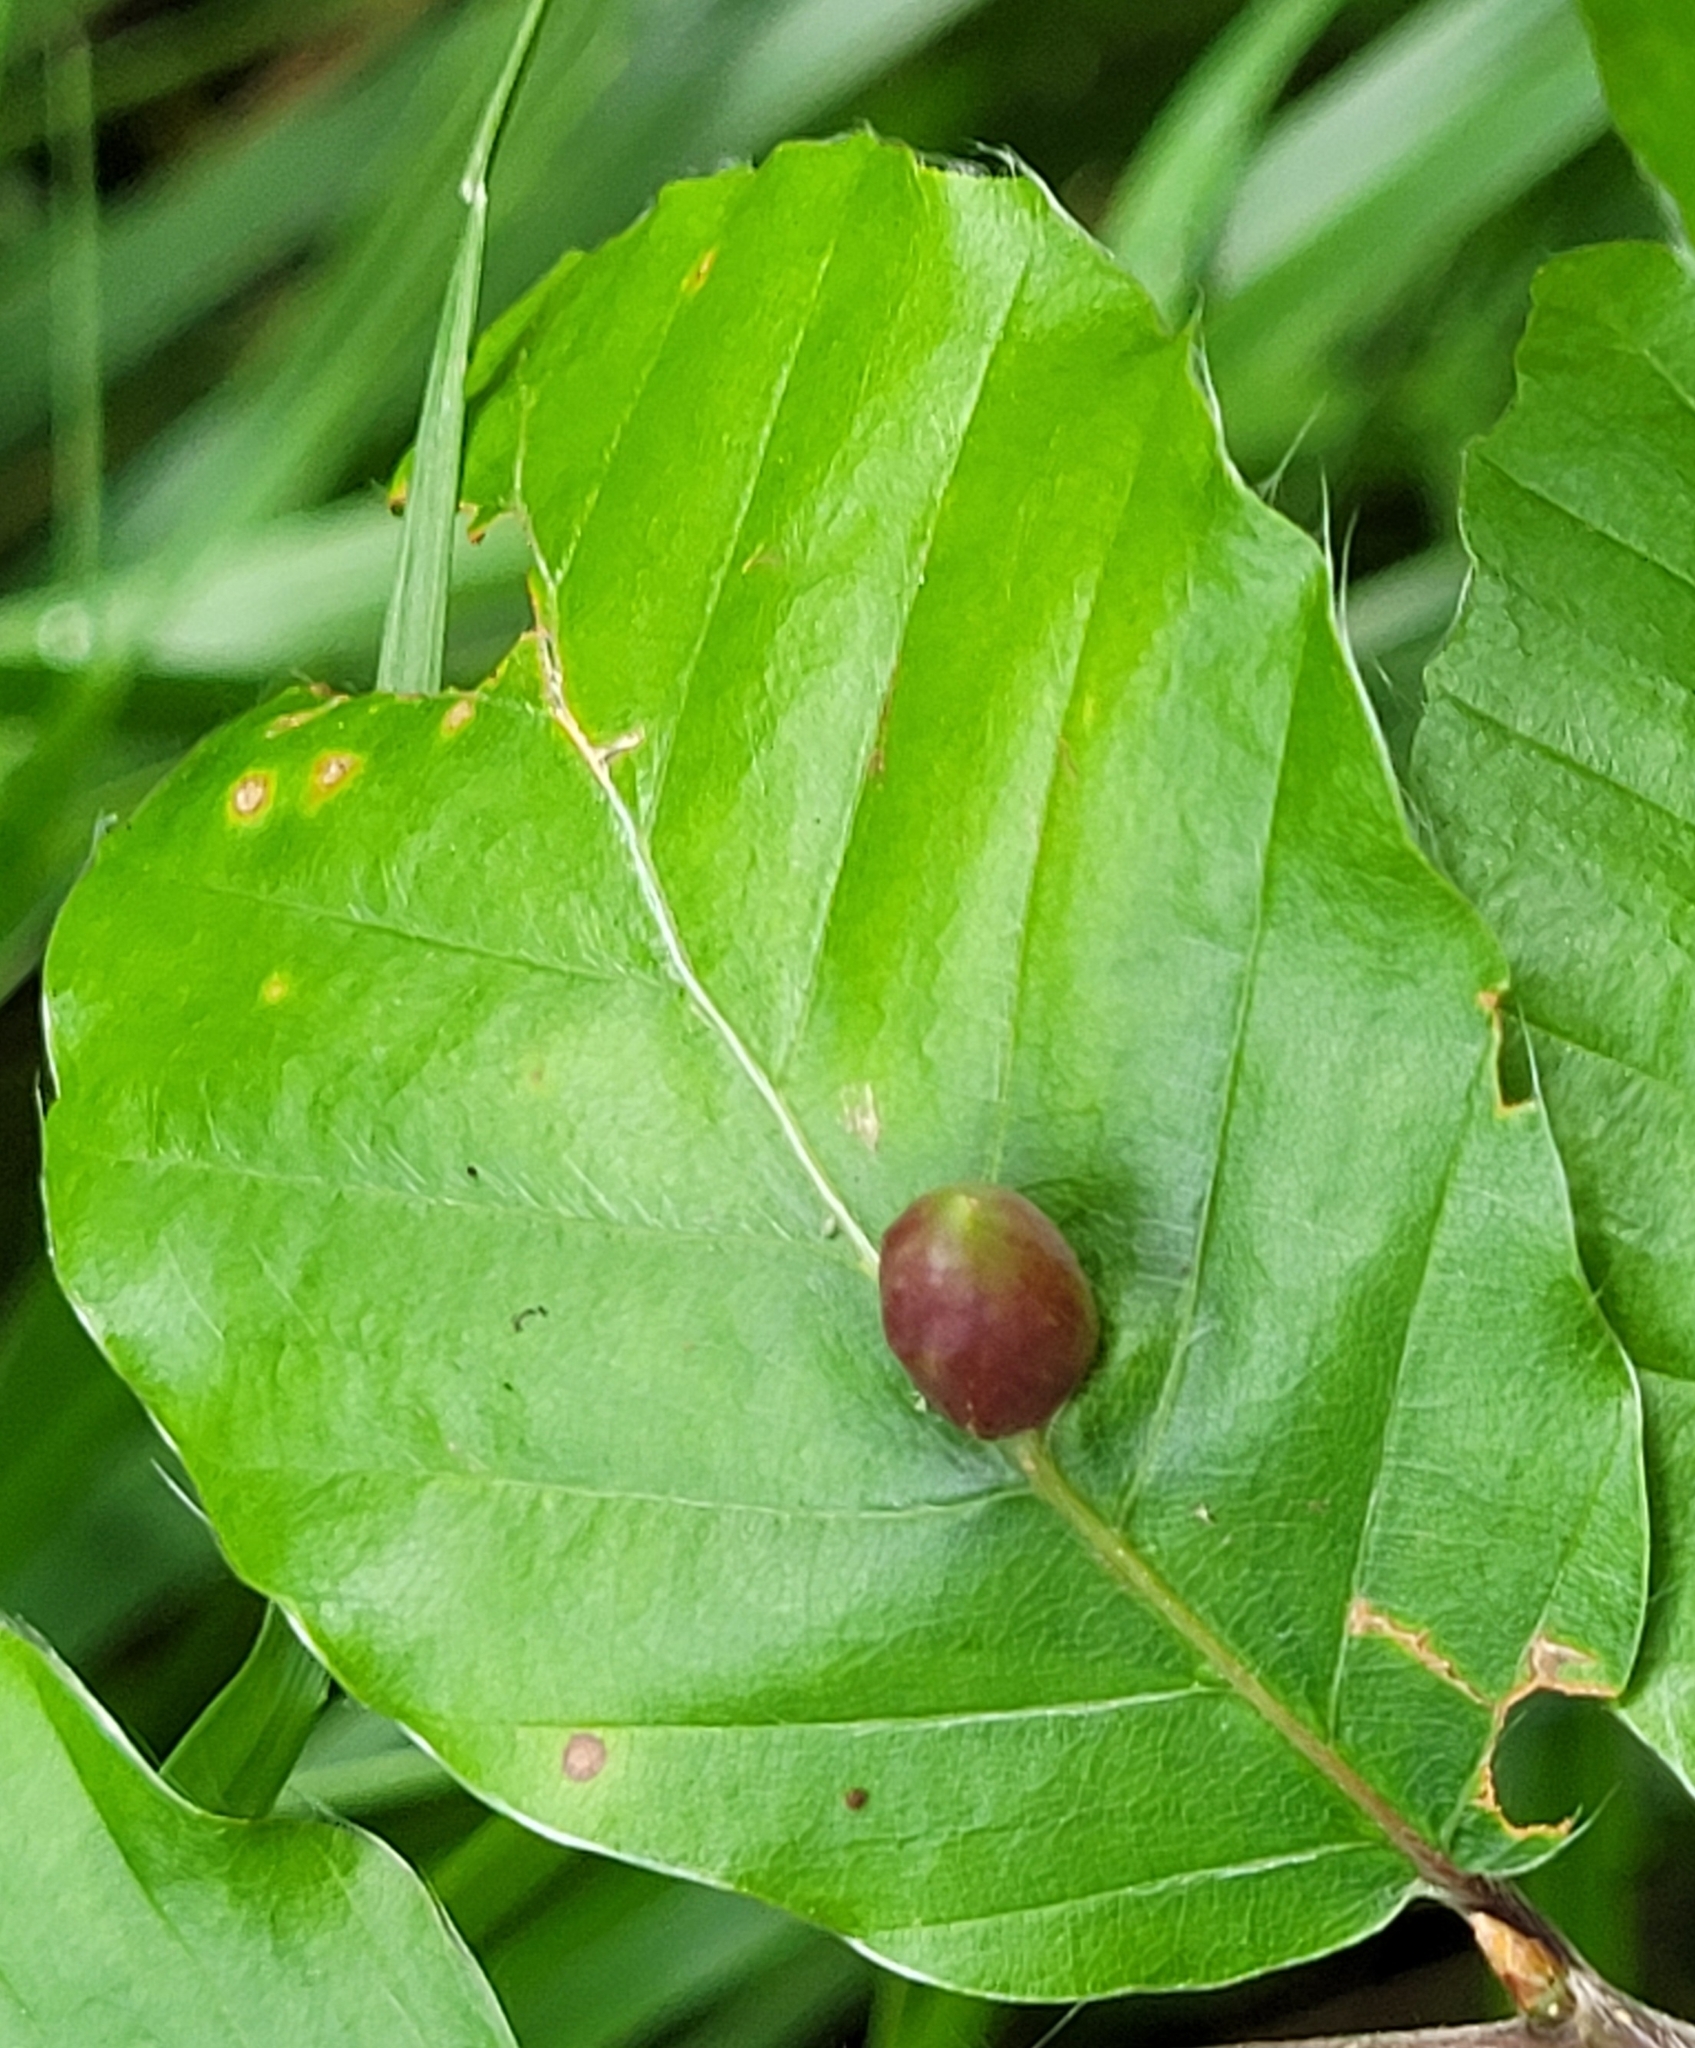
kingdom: Animalia
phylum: Arthropoda
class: Insecta
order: Diptera
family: Cecidomyiidae
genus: Mikiola
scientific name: Mikiola fagi
